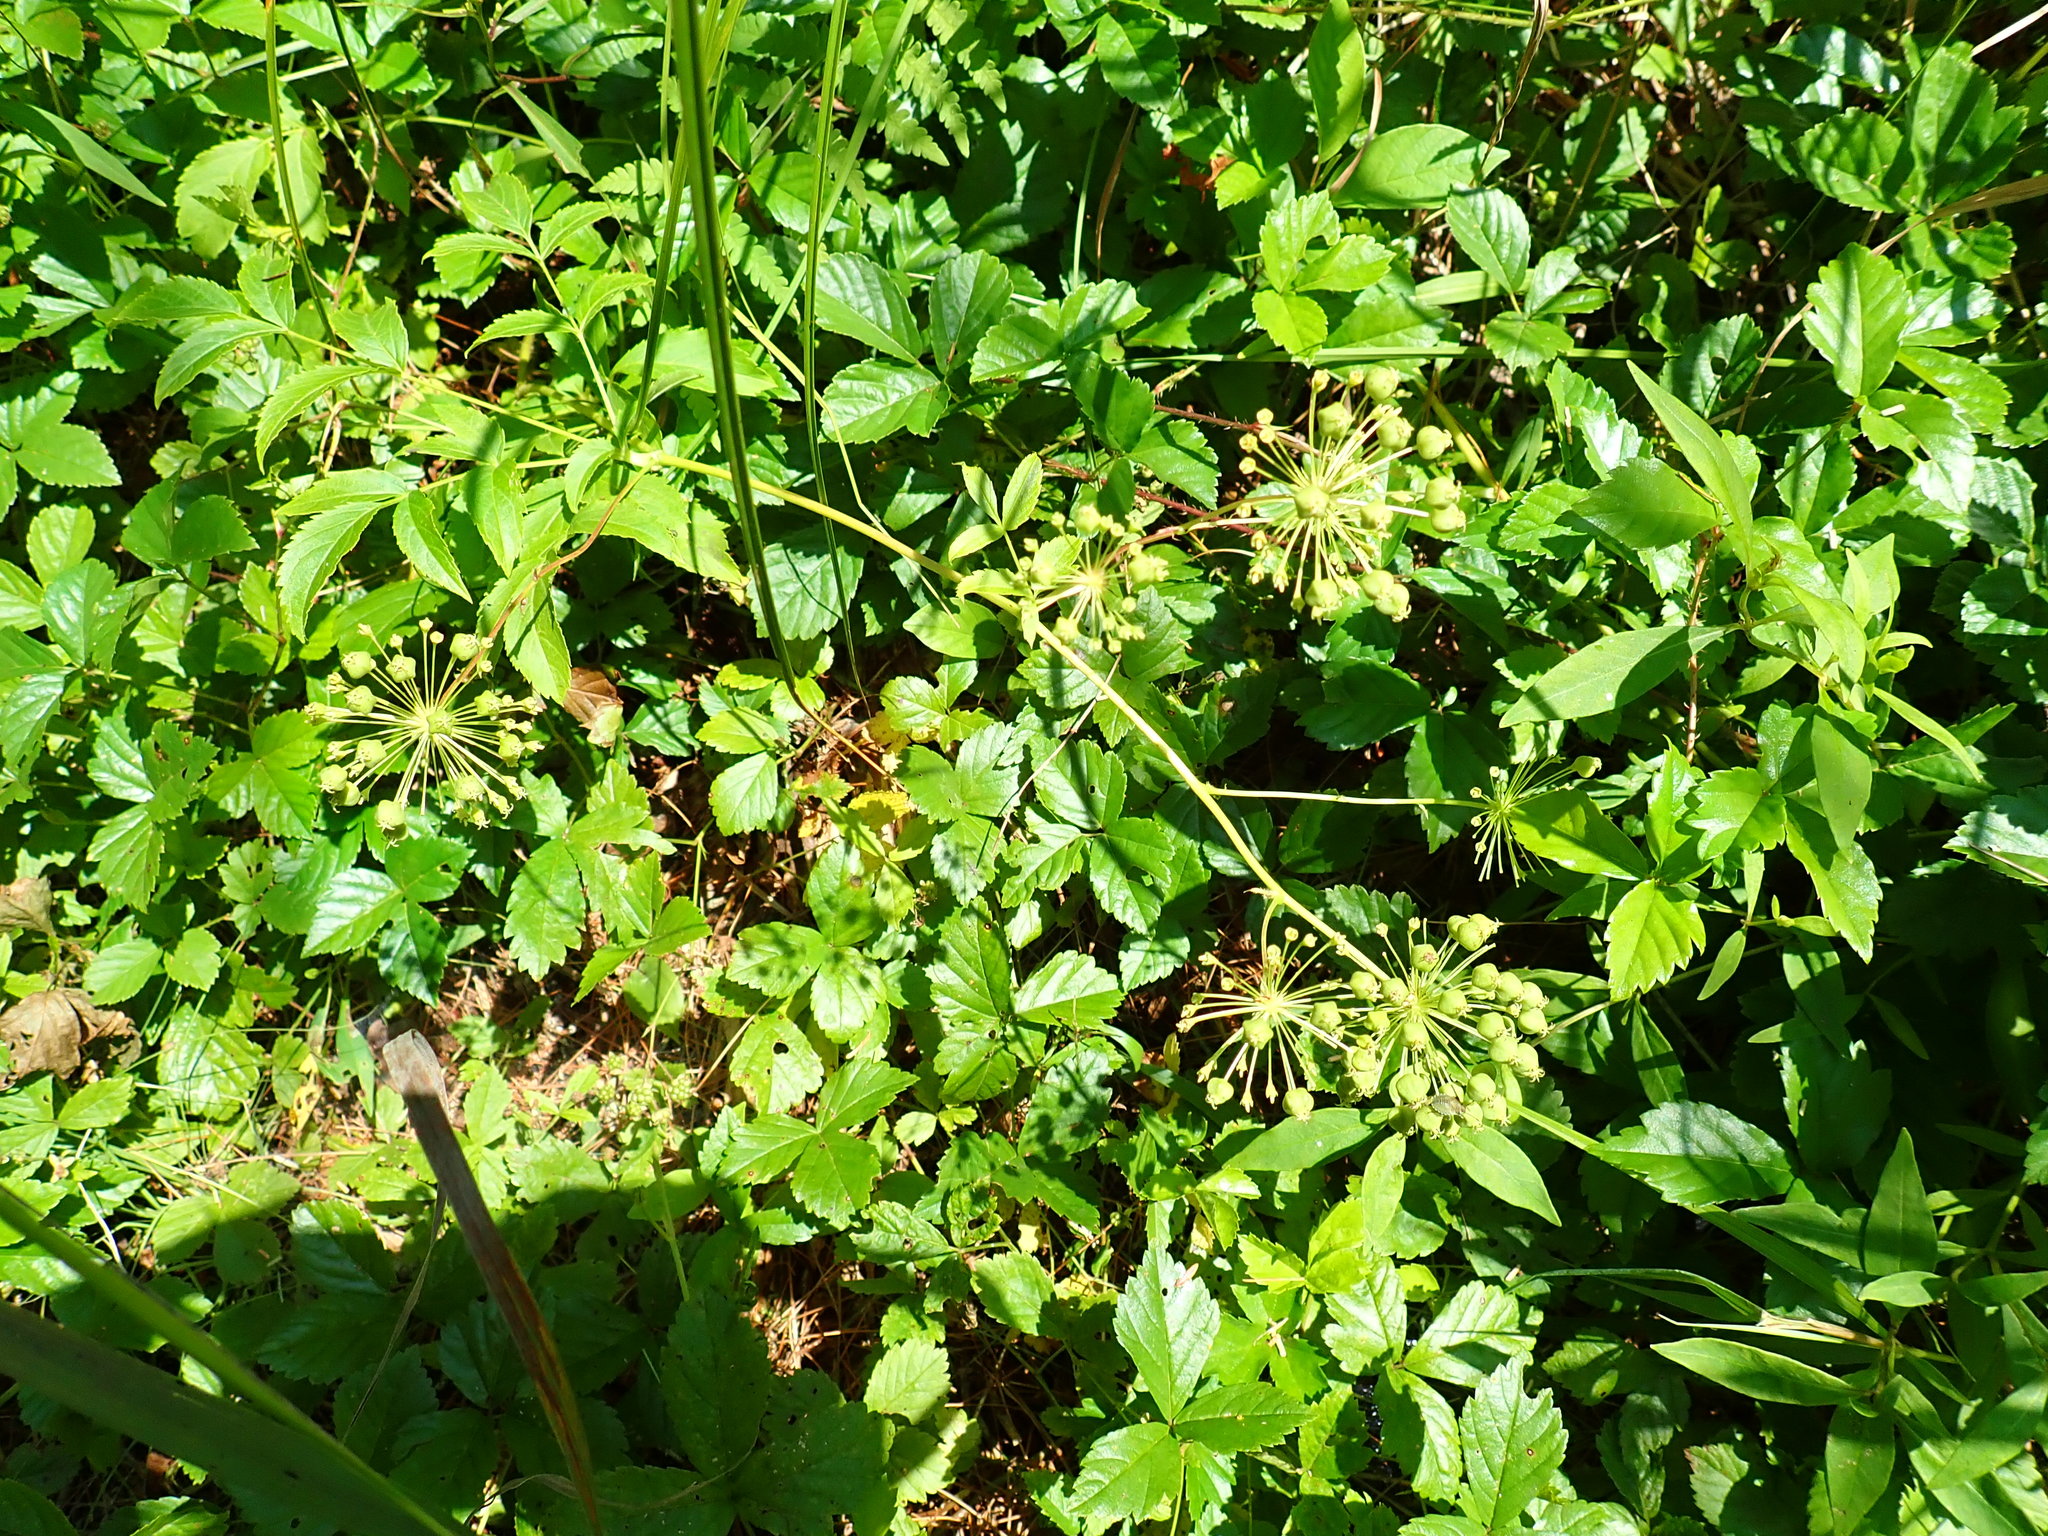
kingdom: Plantae
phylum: Tracheophyta
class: Magnoliopsida
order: Apiales
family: Araliaceae
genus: Aralia
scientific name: Aralia hispida
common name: Bristly sarsaparilla
